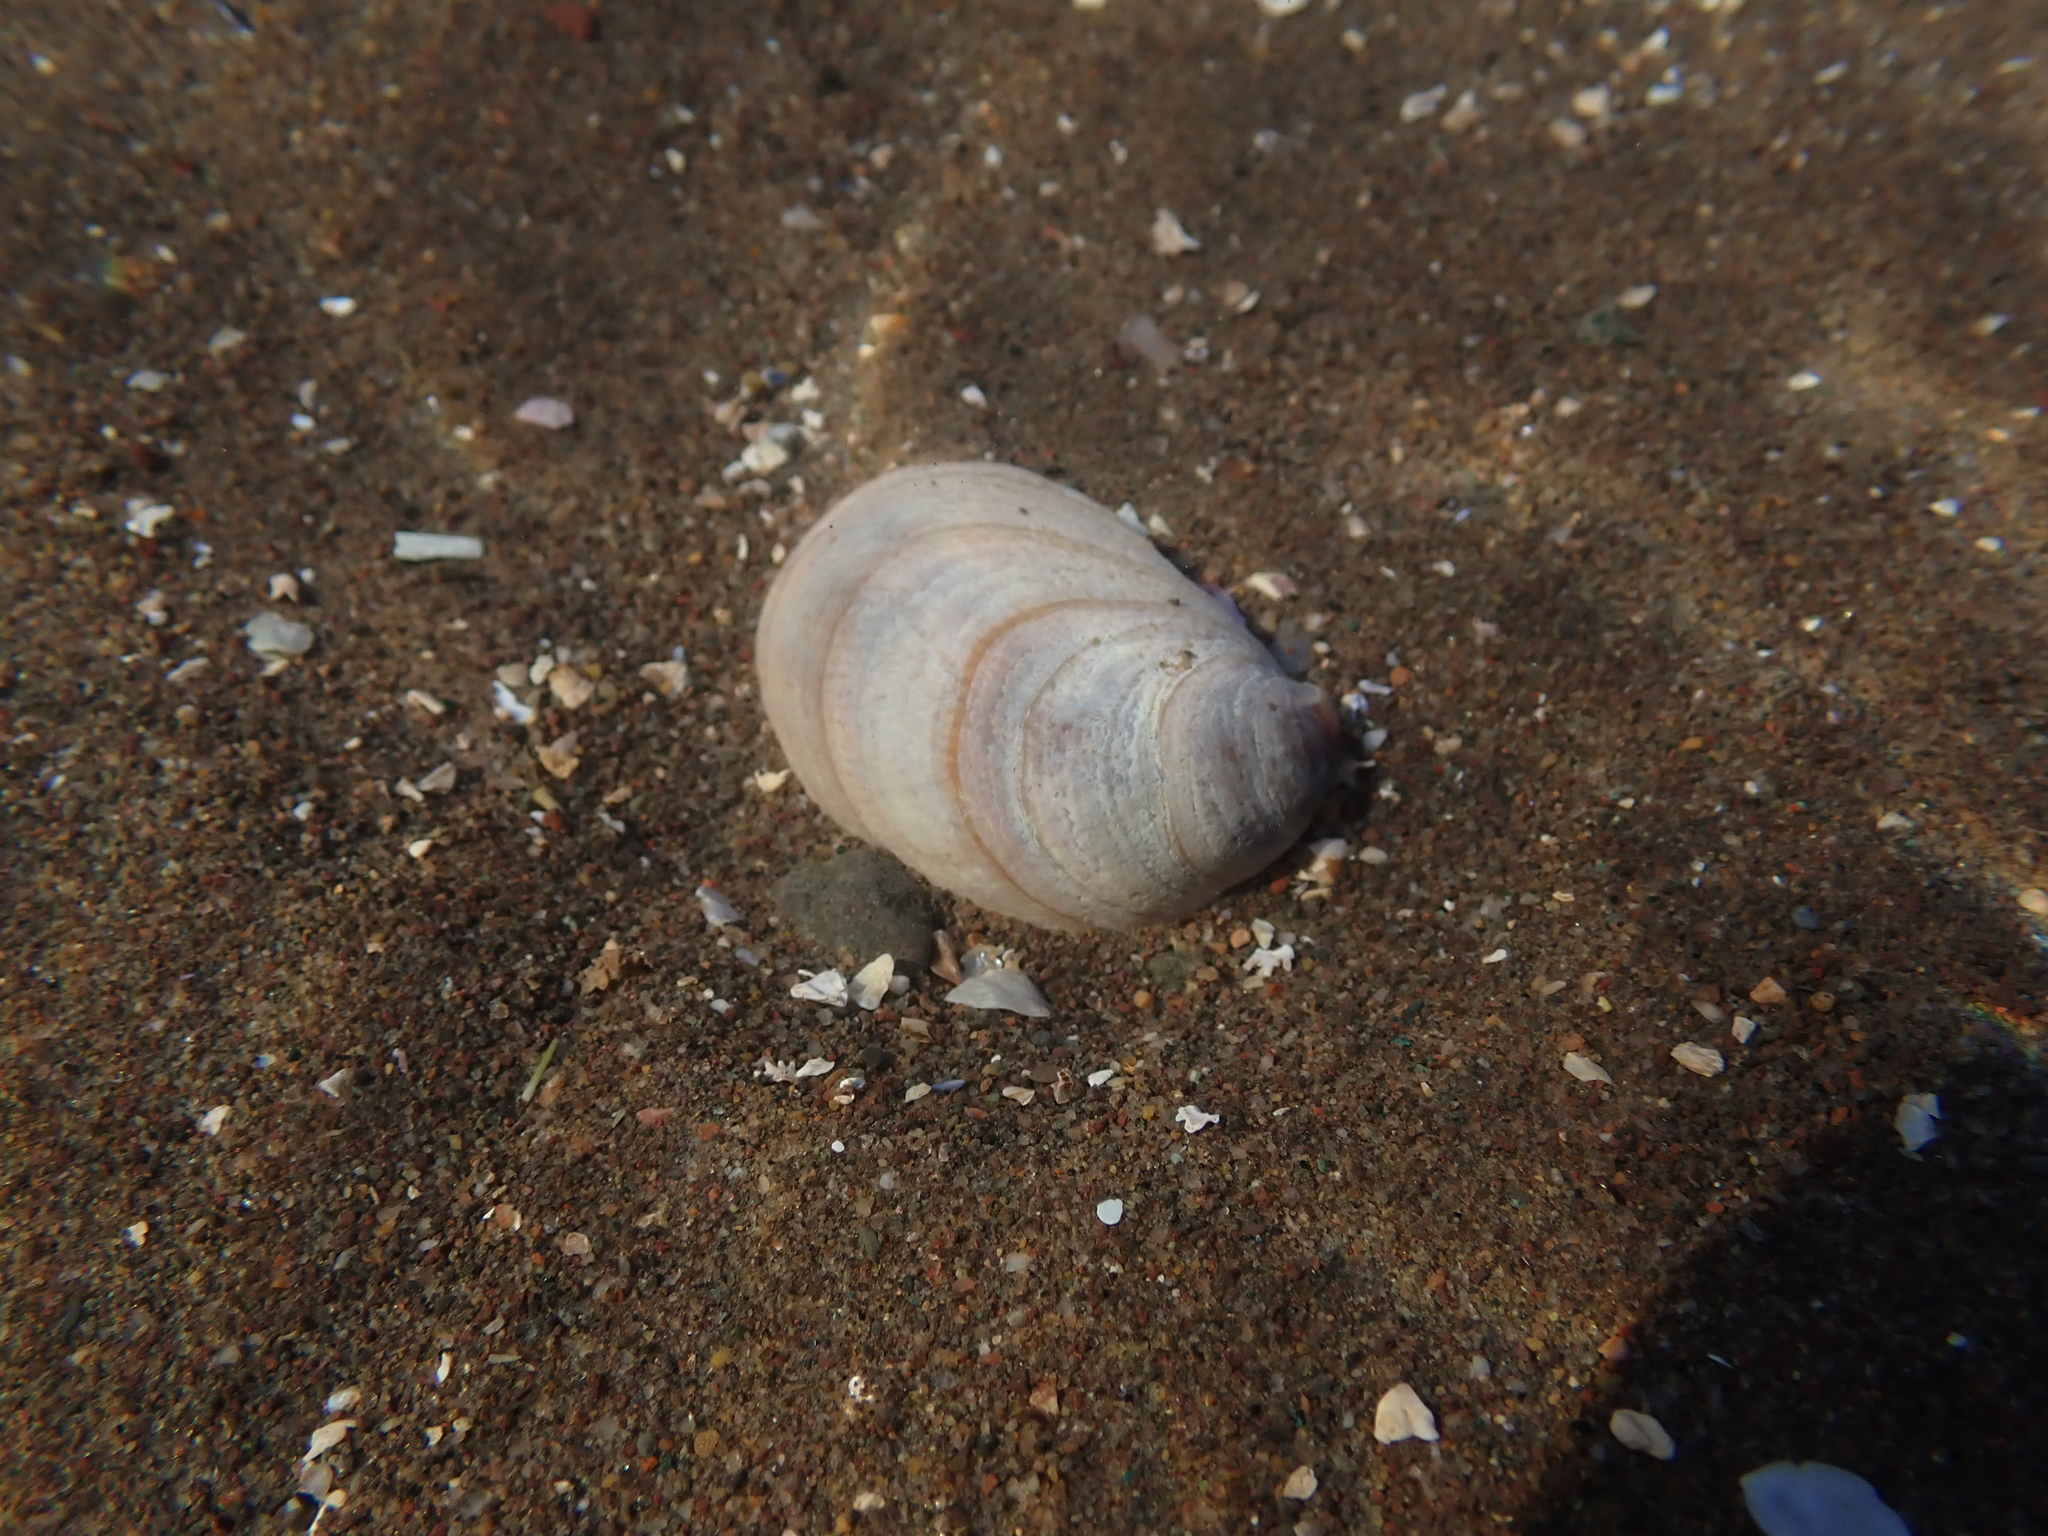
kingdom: Animalia
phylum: Mollusca
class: Gastropoda
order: Littorinimorpha
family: Calyptraeidae
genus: Crepidula
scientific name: Crepidula fornicata
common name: Slipper limpet
